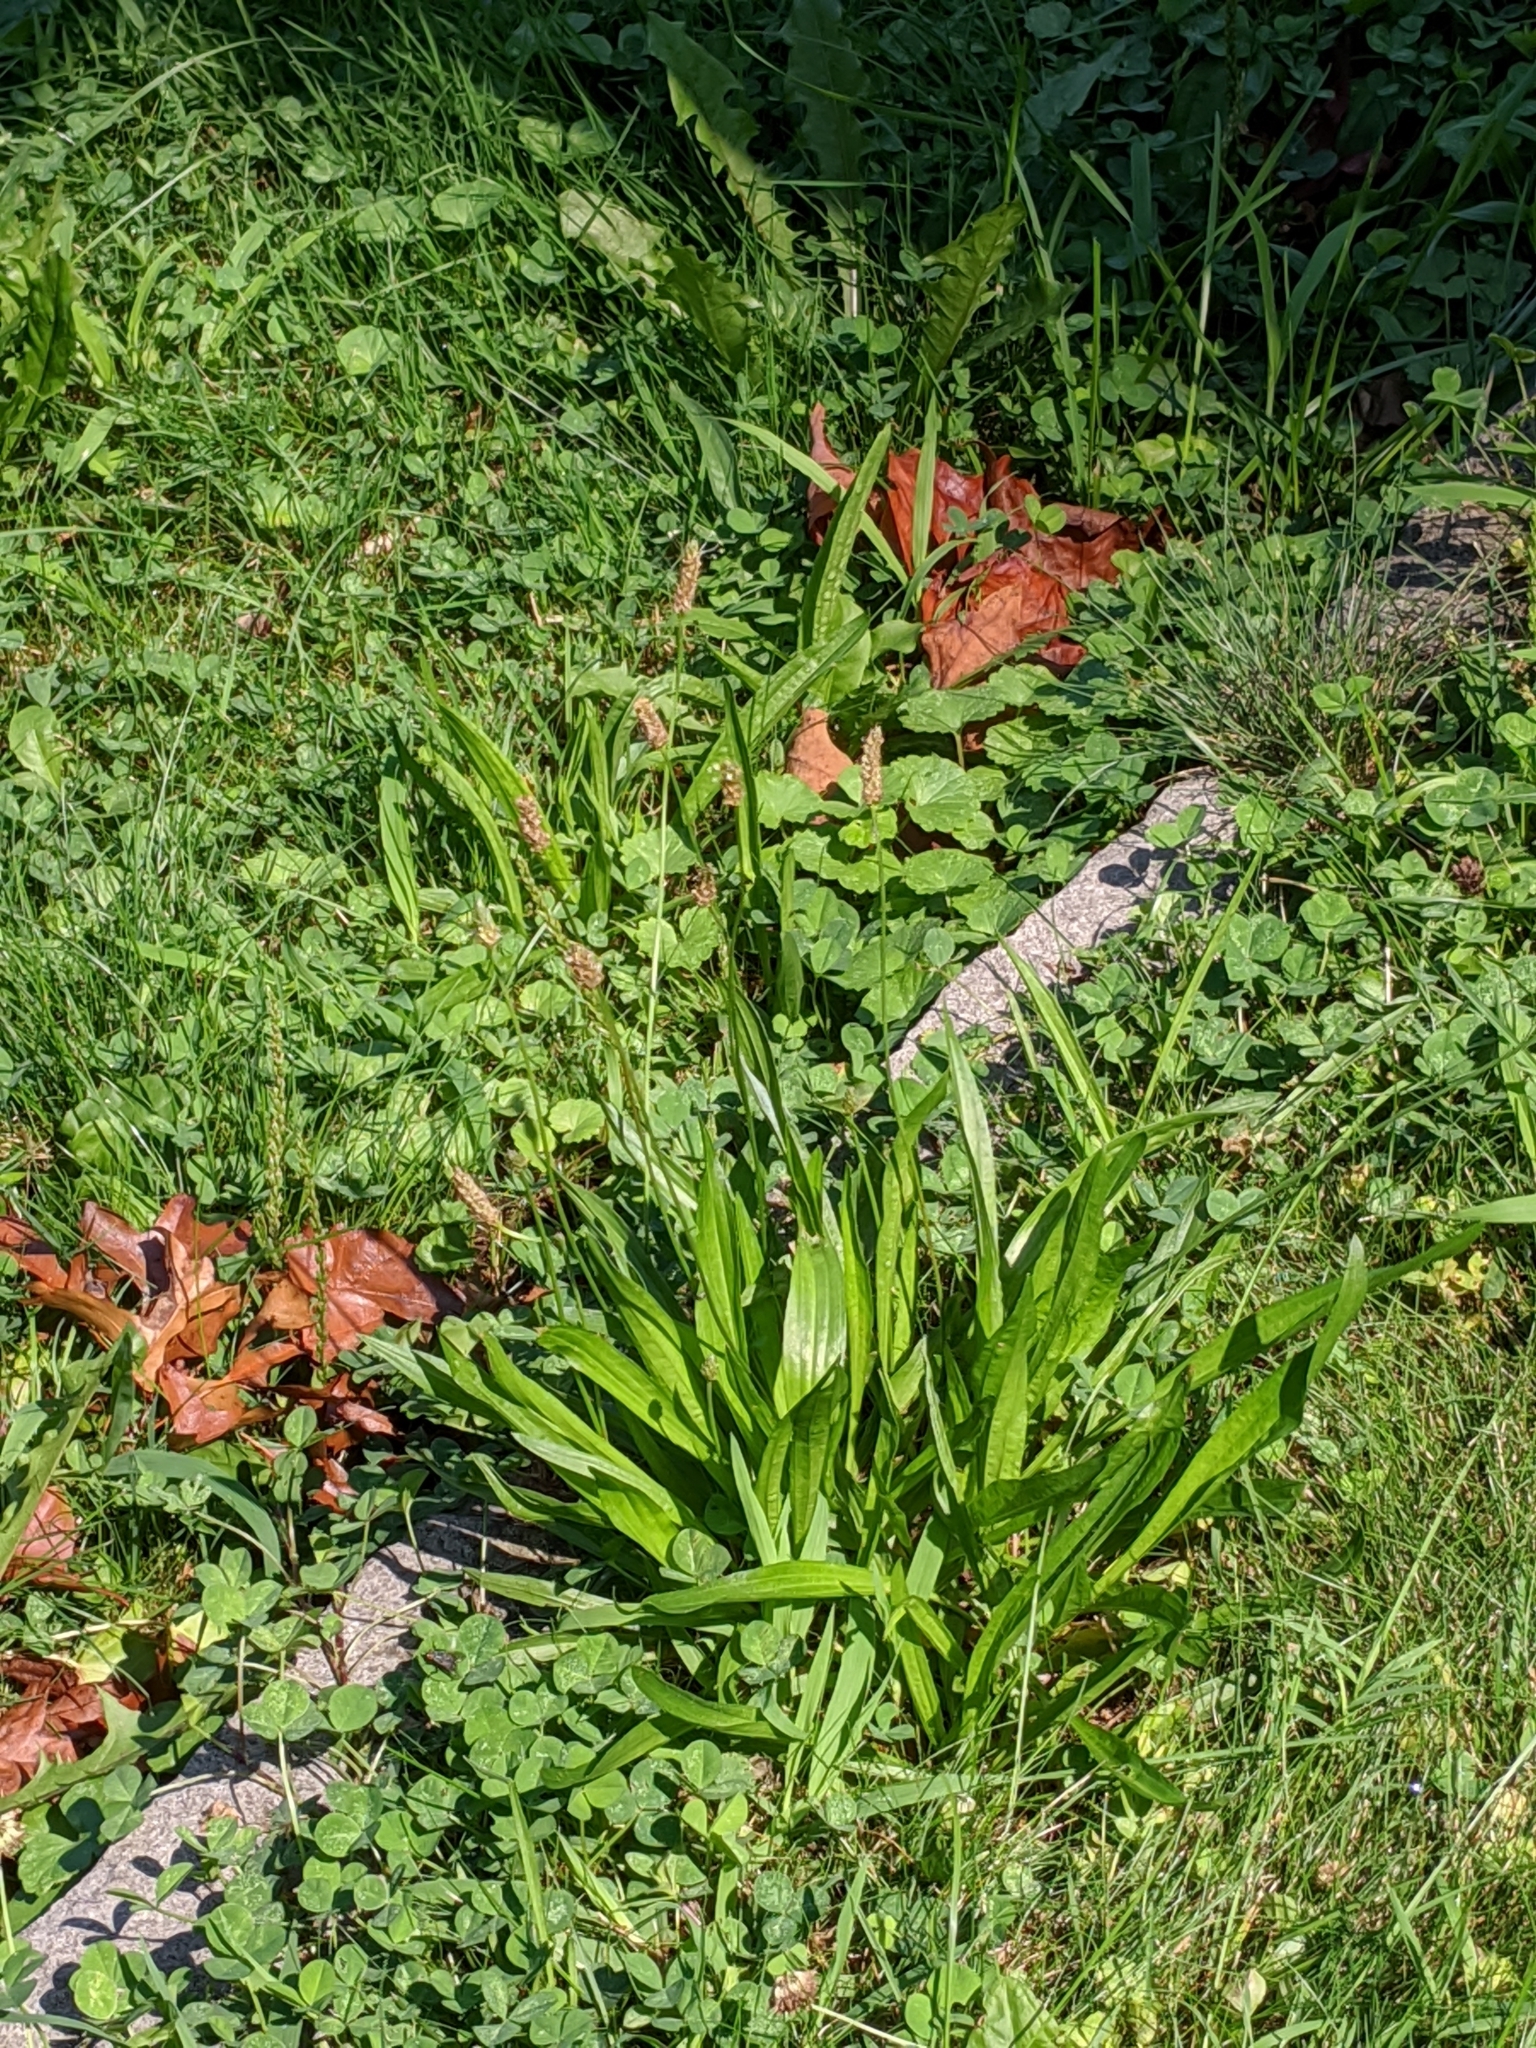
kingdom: Plantae
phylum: Tracheophyta
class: Magnoliopsida
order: Lamiales
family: Plantaginaceae
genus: Plantago
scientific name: Plantago lanceolata
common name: Ribwort plantain
